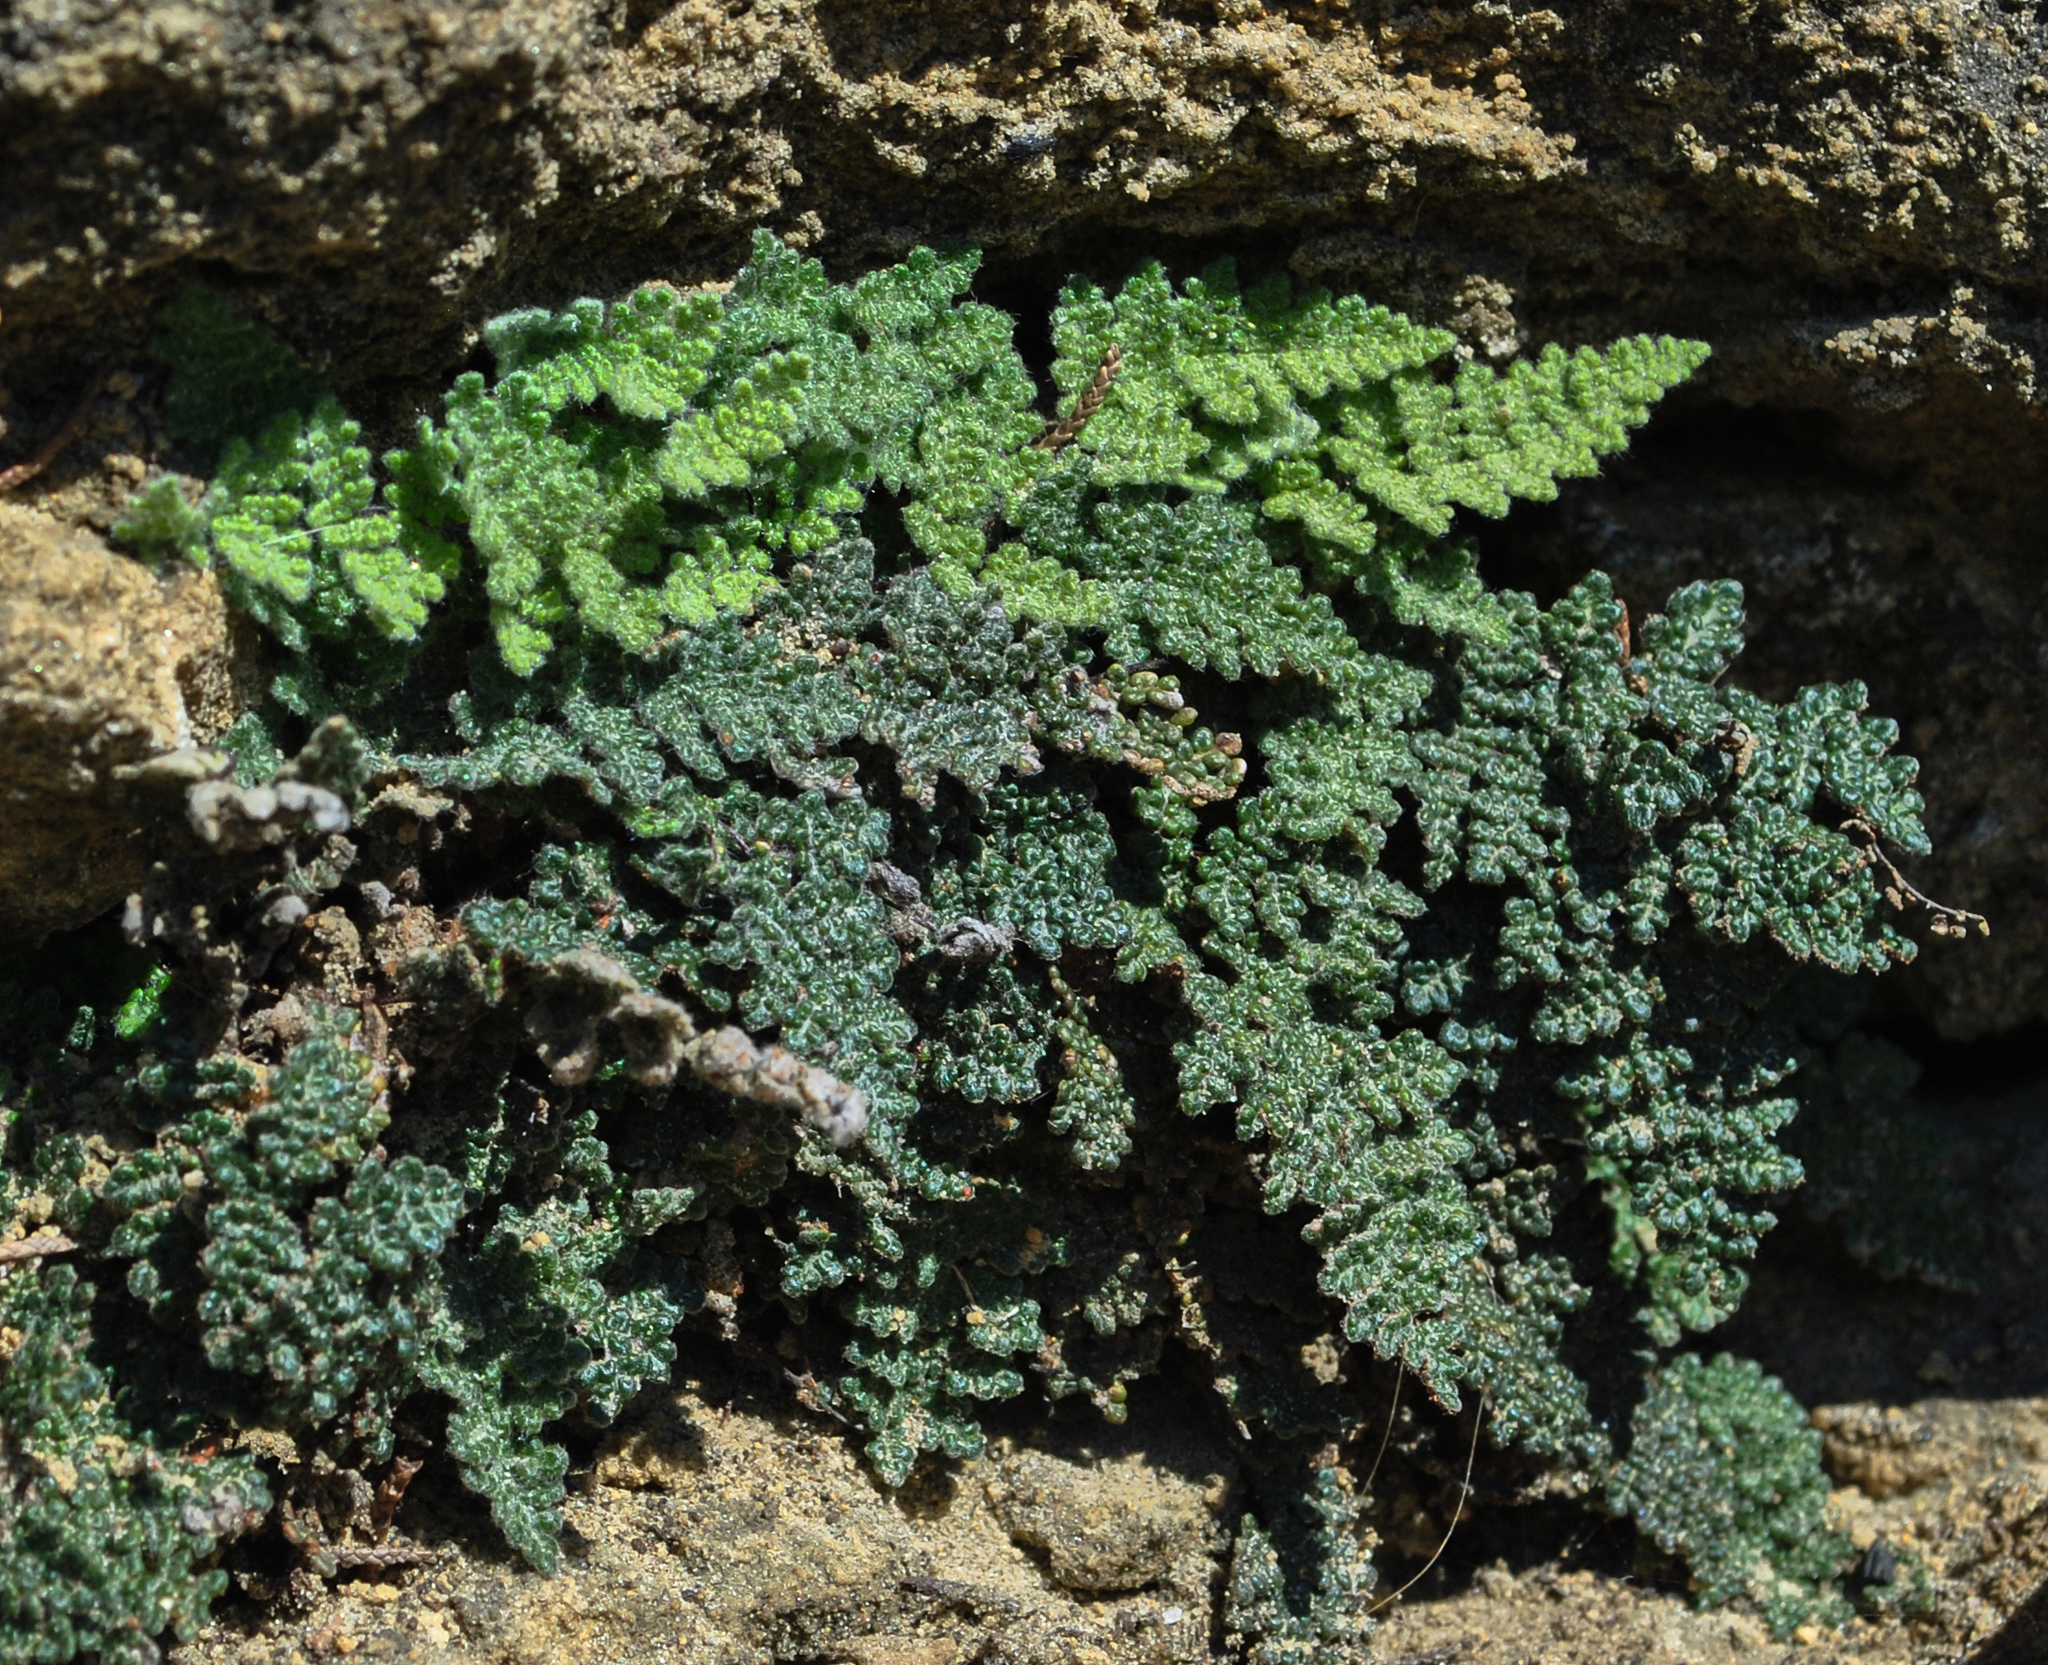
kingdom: Plantae
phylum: Tracheophyta
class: Polypodiopsida
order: Polypodiales
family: Pteridaceae
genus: Myriopteris
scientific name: Myriopteris gracilis
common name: Fee's lip fern
